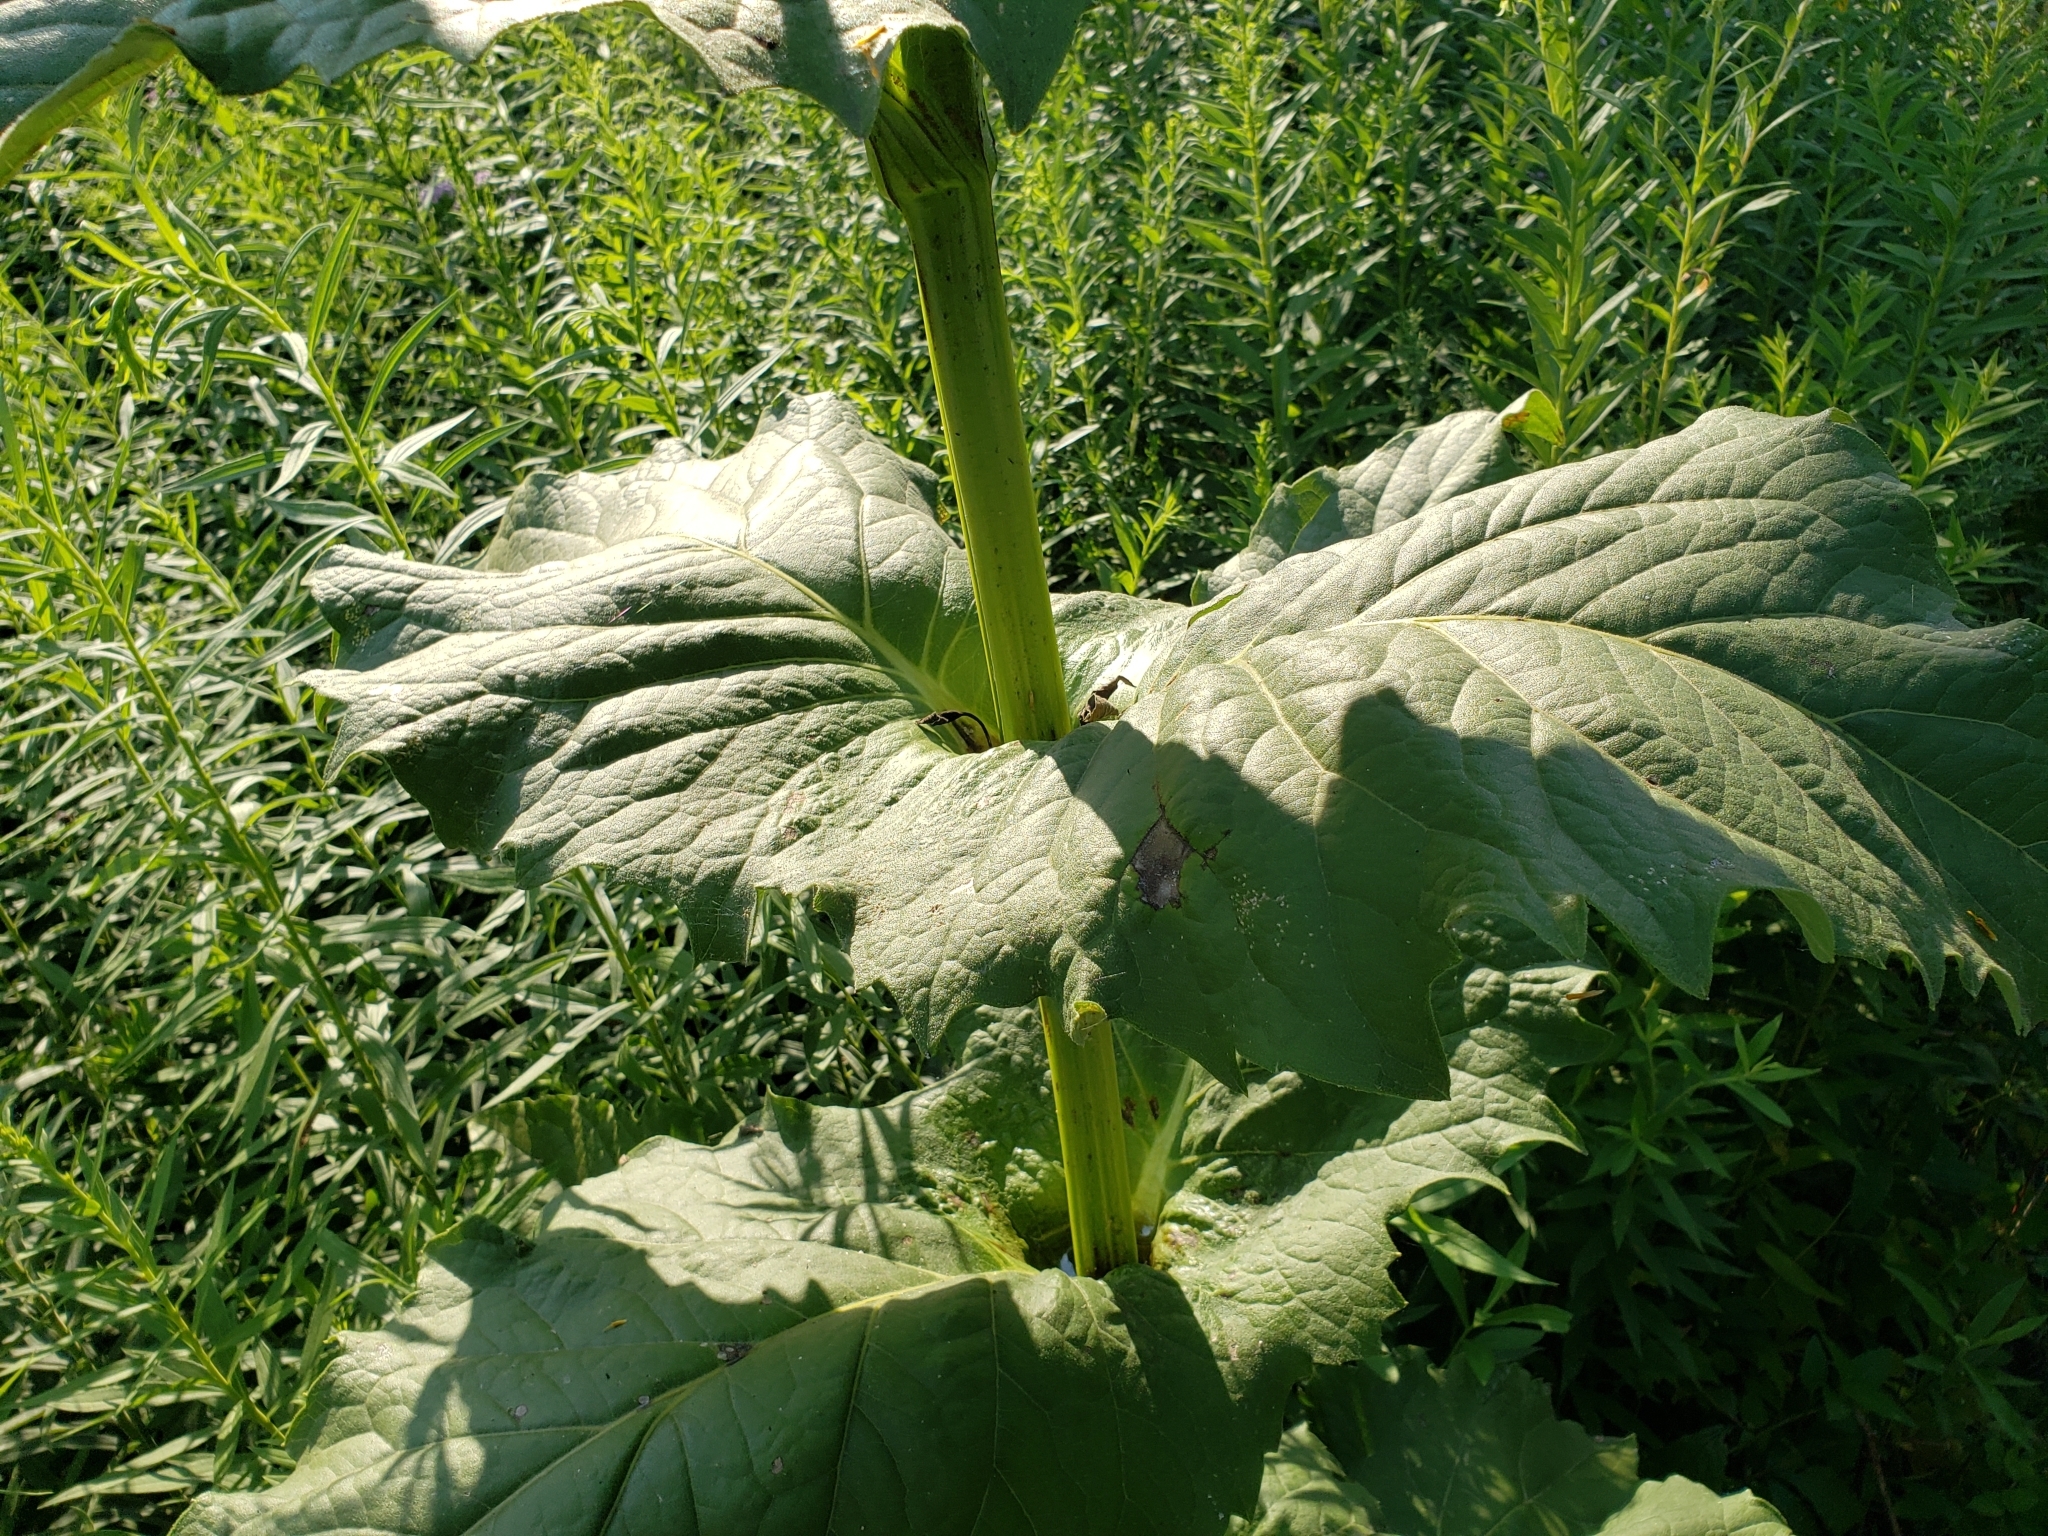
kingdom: Plantae
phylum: Tracheophyta
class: Magnoliopsida
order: Asterales
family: Asteraceae
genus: Silphium
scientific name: Silphium perfoliatum
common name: Cup-plant
